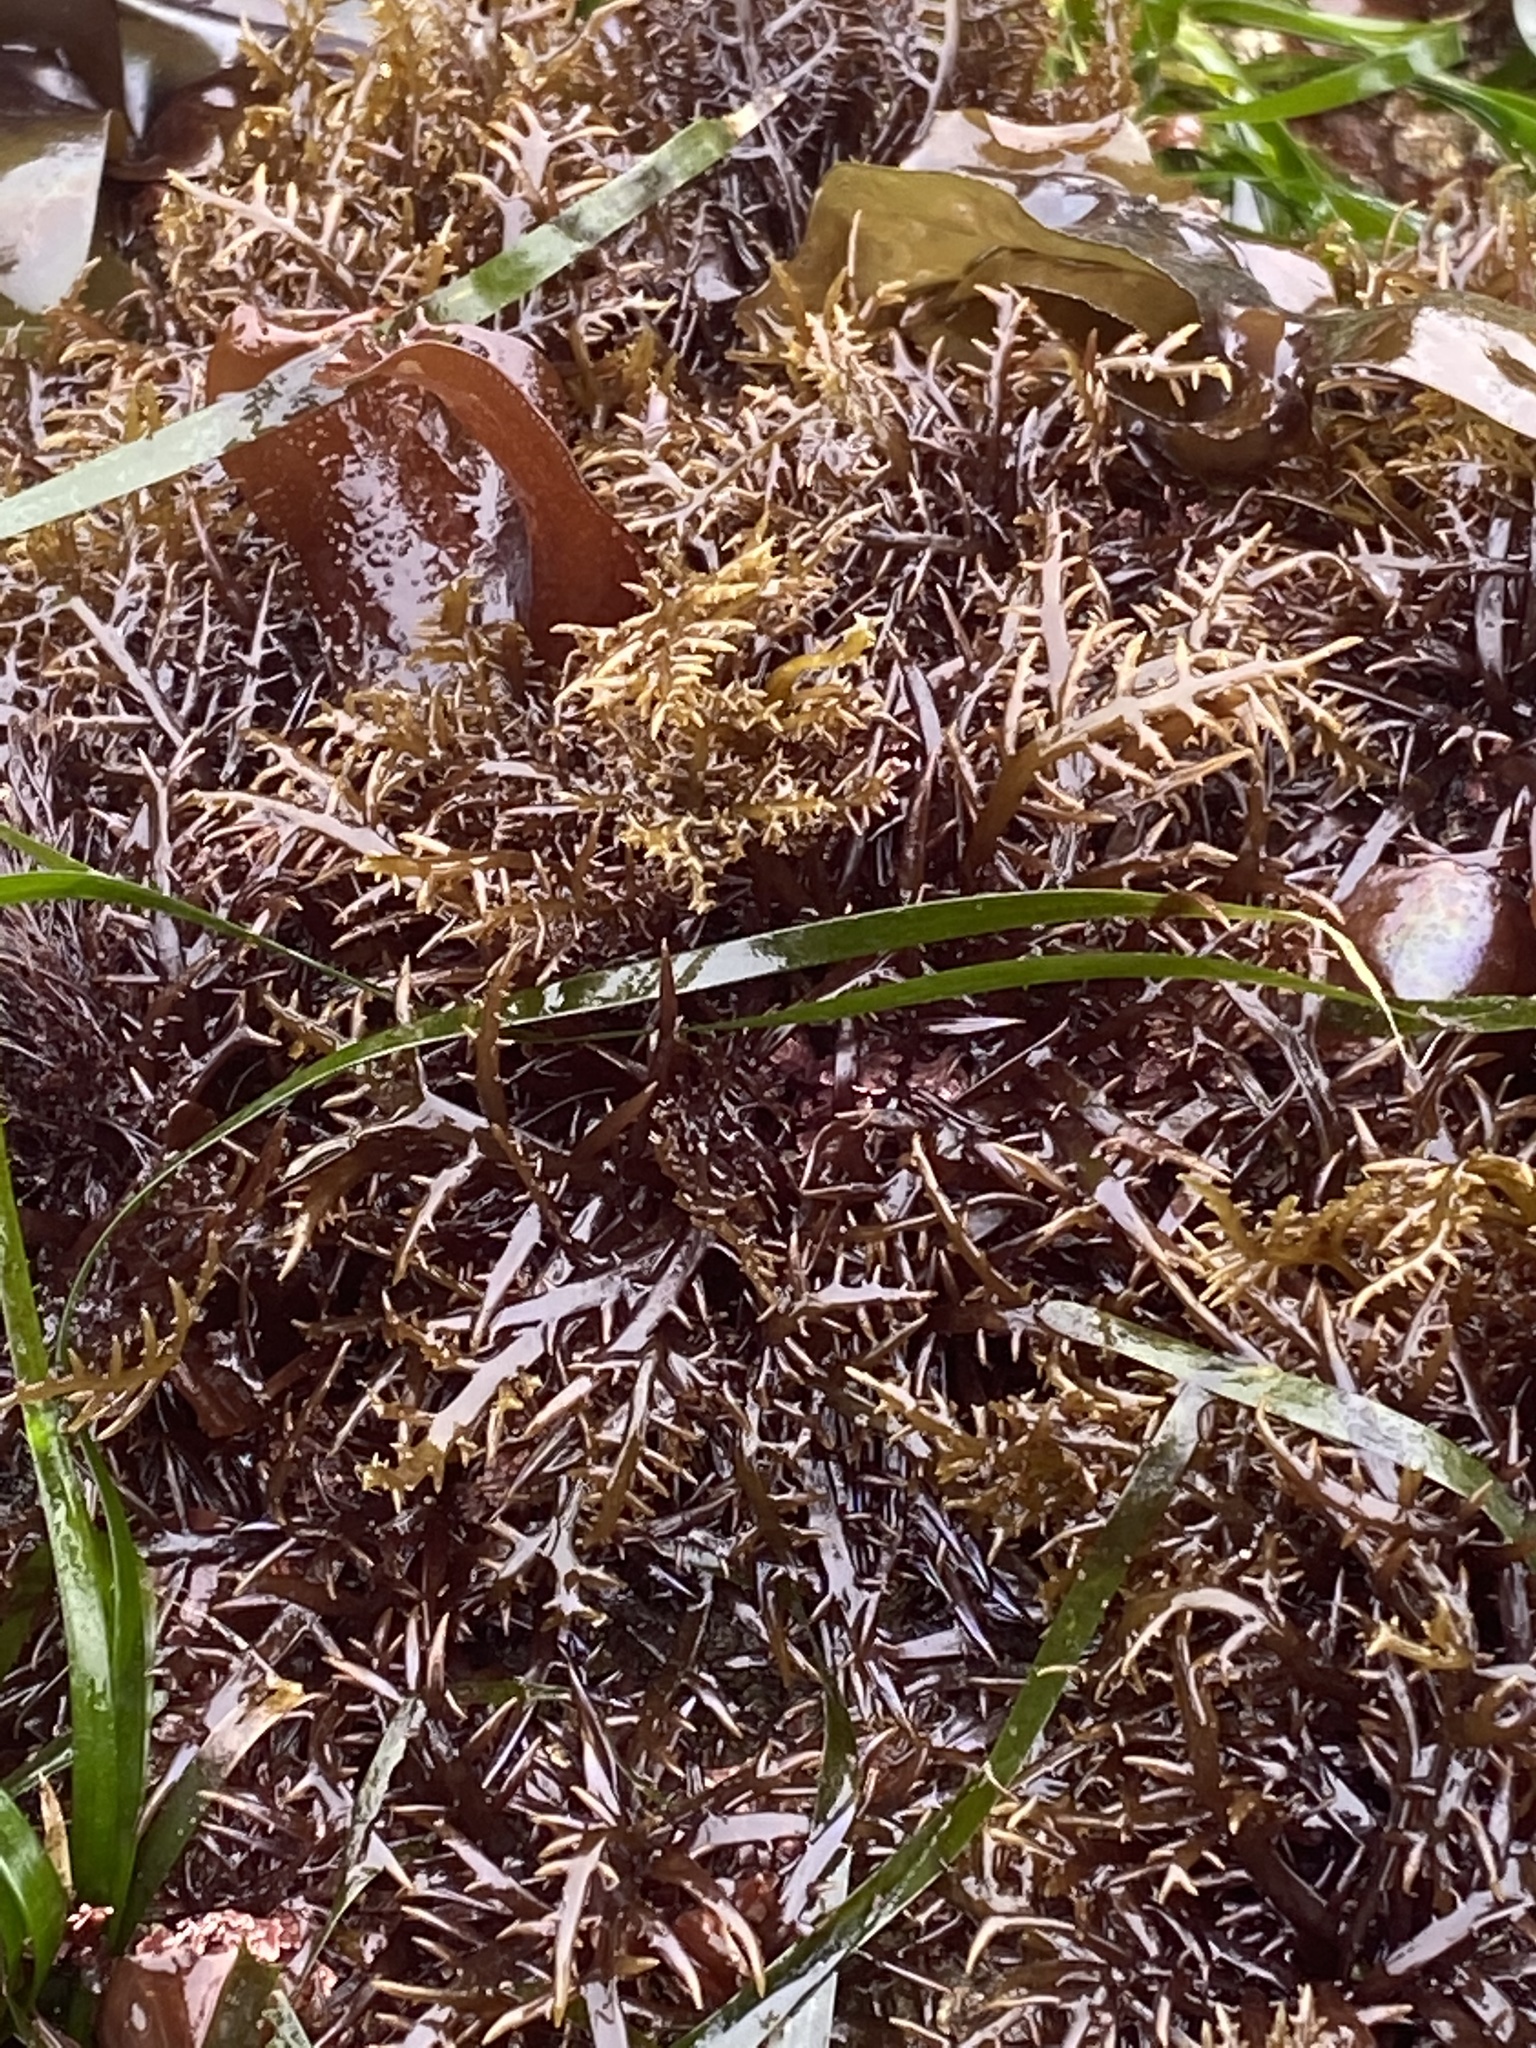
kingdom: Plantae
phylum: Rhodophyta
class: Florideophyceae
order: Gigartinales
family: Gigartinaceae
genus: Chondracanthus
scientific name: Chondracanthus canaliculatus
